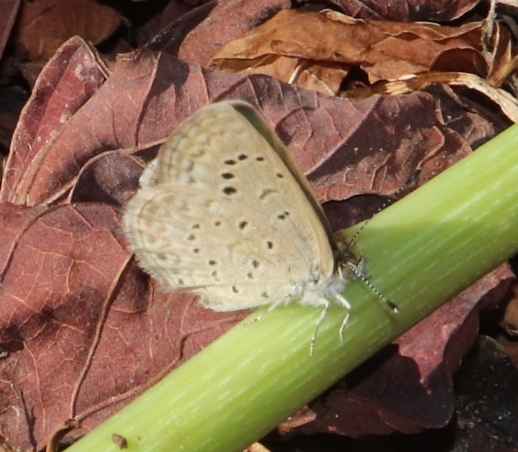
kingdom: Animalia
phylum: Arthropoda
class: Insecta
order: Lepidoptera
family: Lycaenidae
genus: Zizeeria
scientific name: Zizeeria knysna
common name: African grass blue
